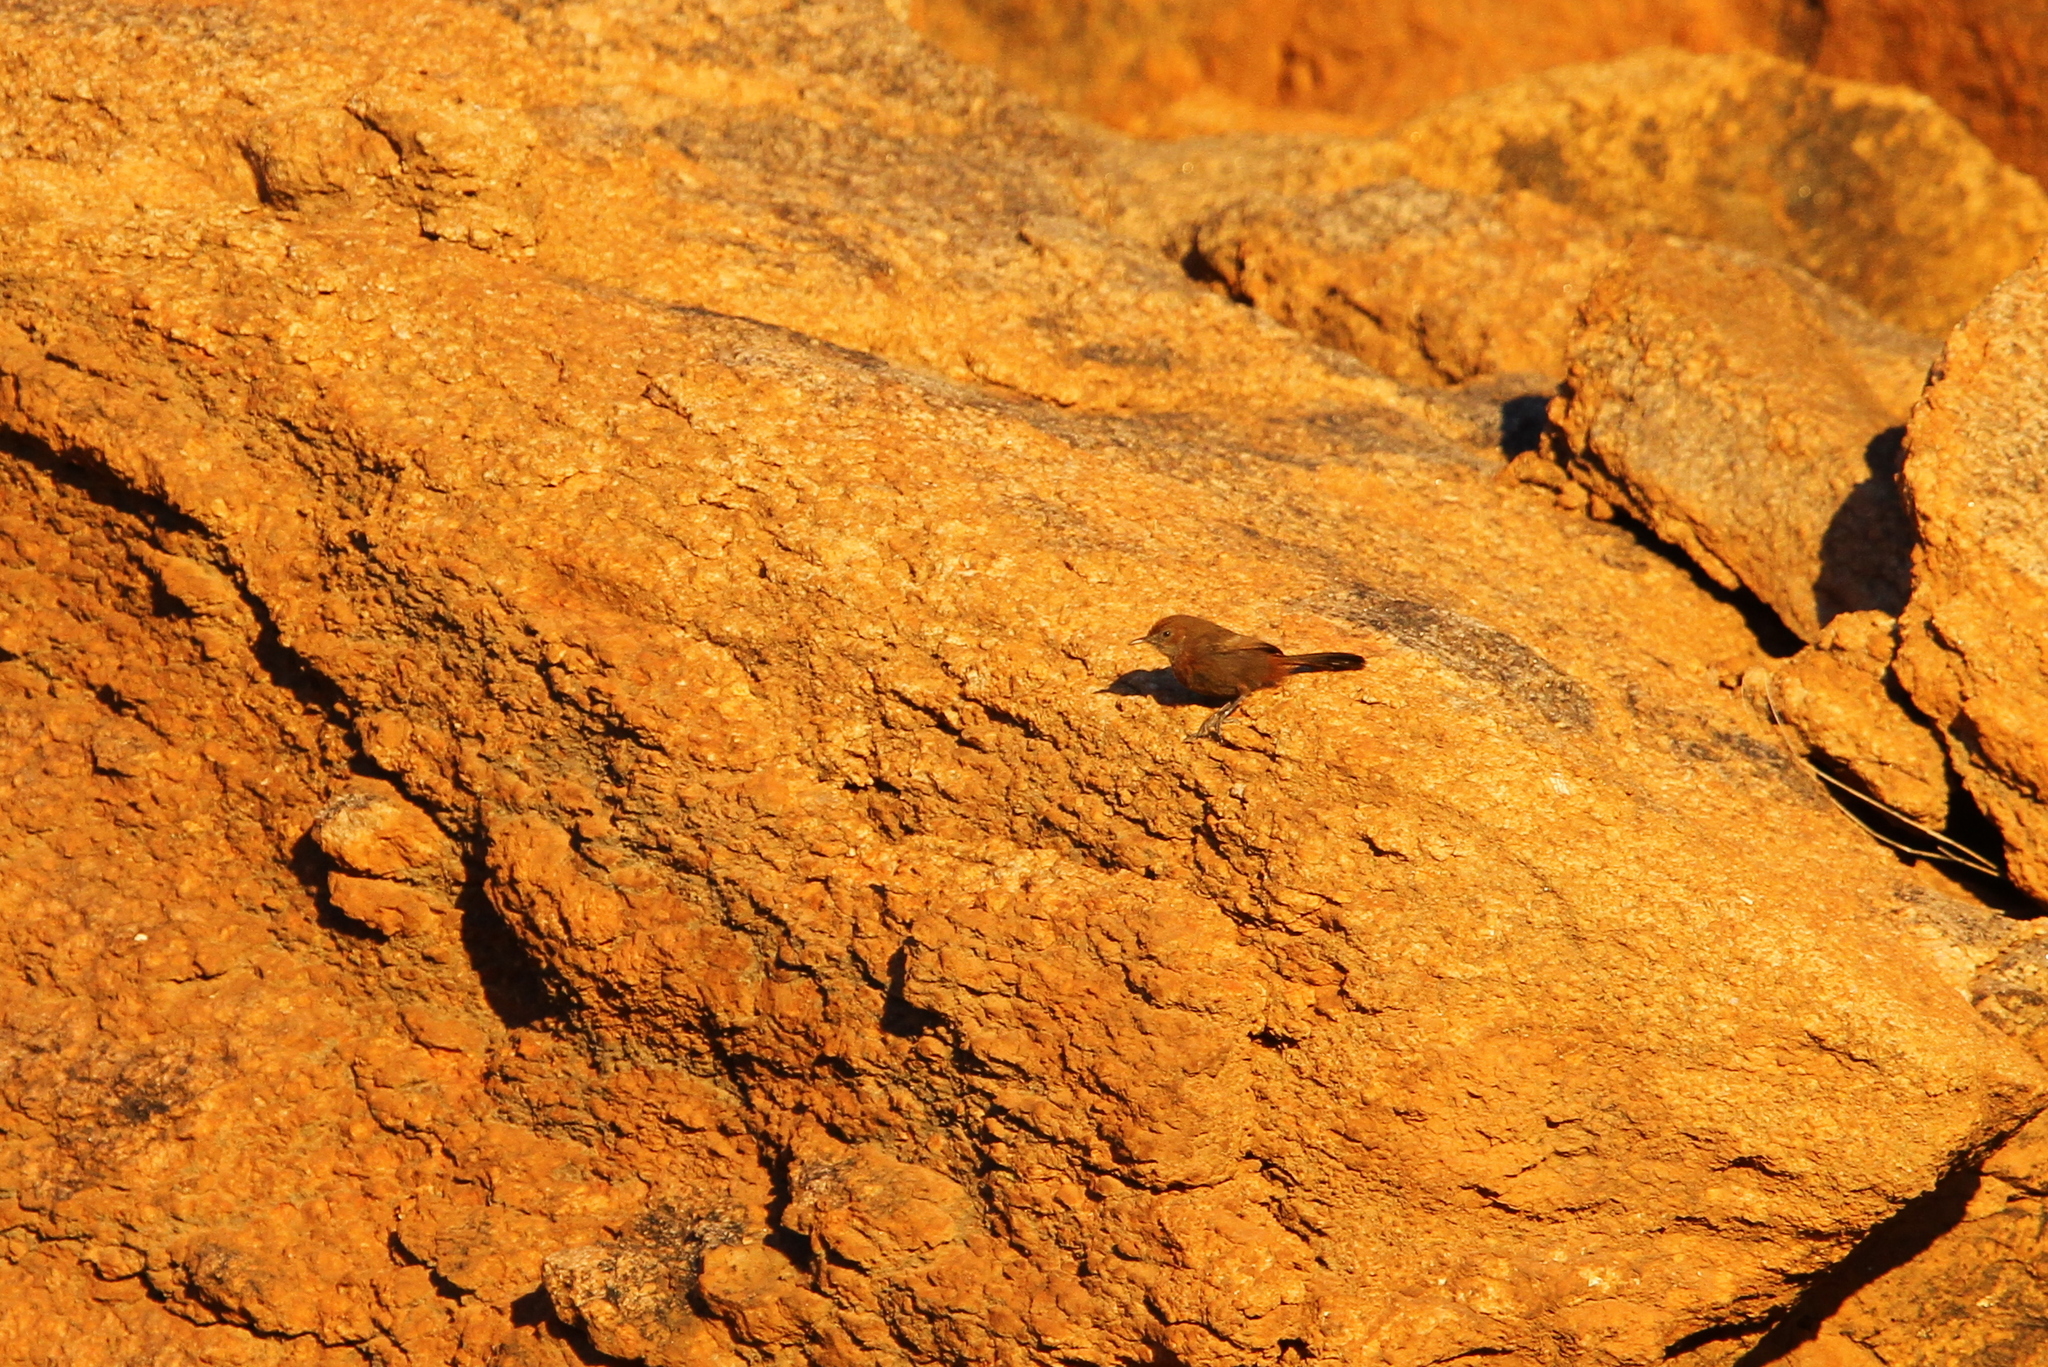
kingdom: Animalia
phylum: Chordata
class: Aves
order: Passeriformes
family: Cisticolidae
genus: Euryptila
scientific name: Euryptila subcinnamomea
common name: Cinnamon-breasted warbler
